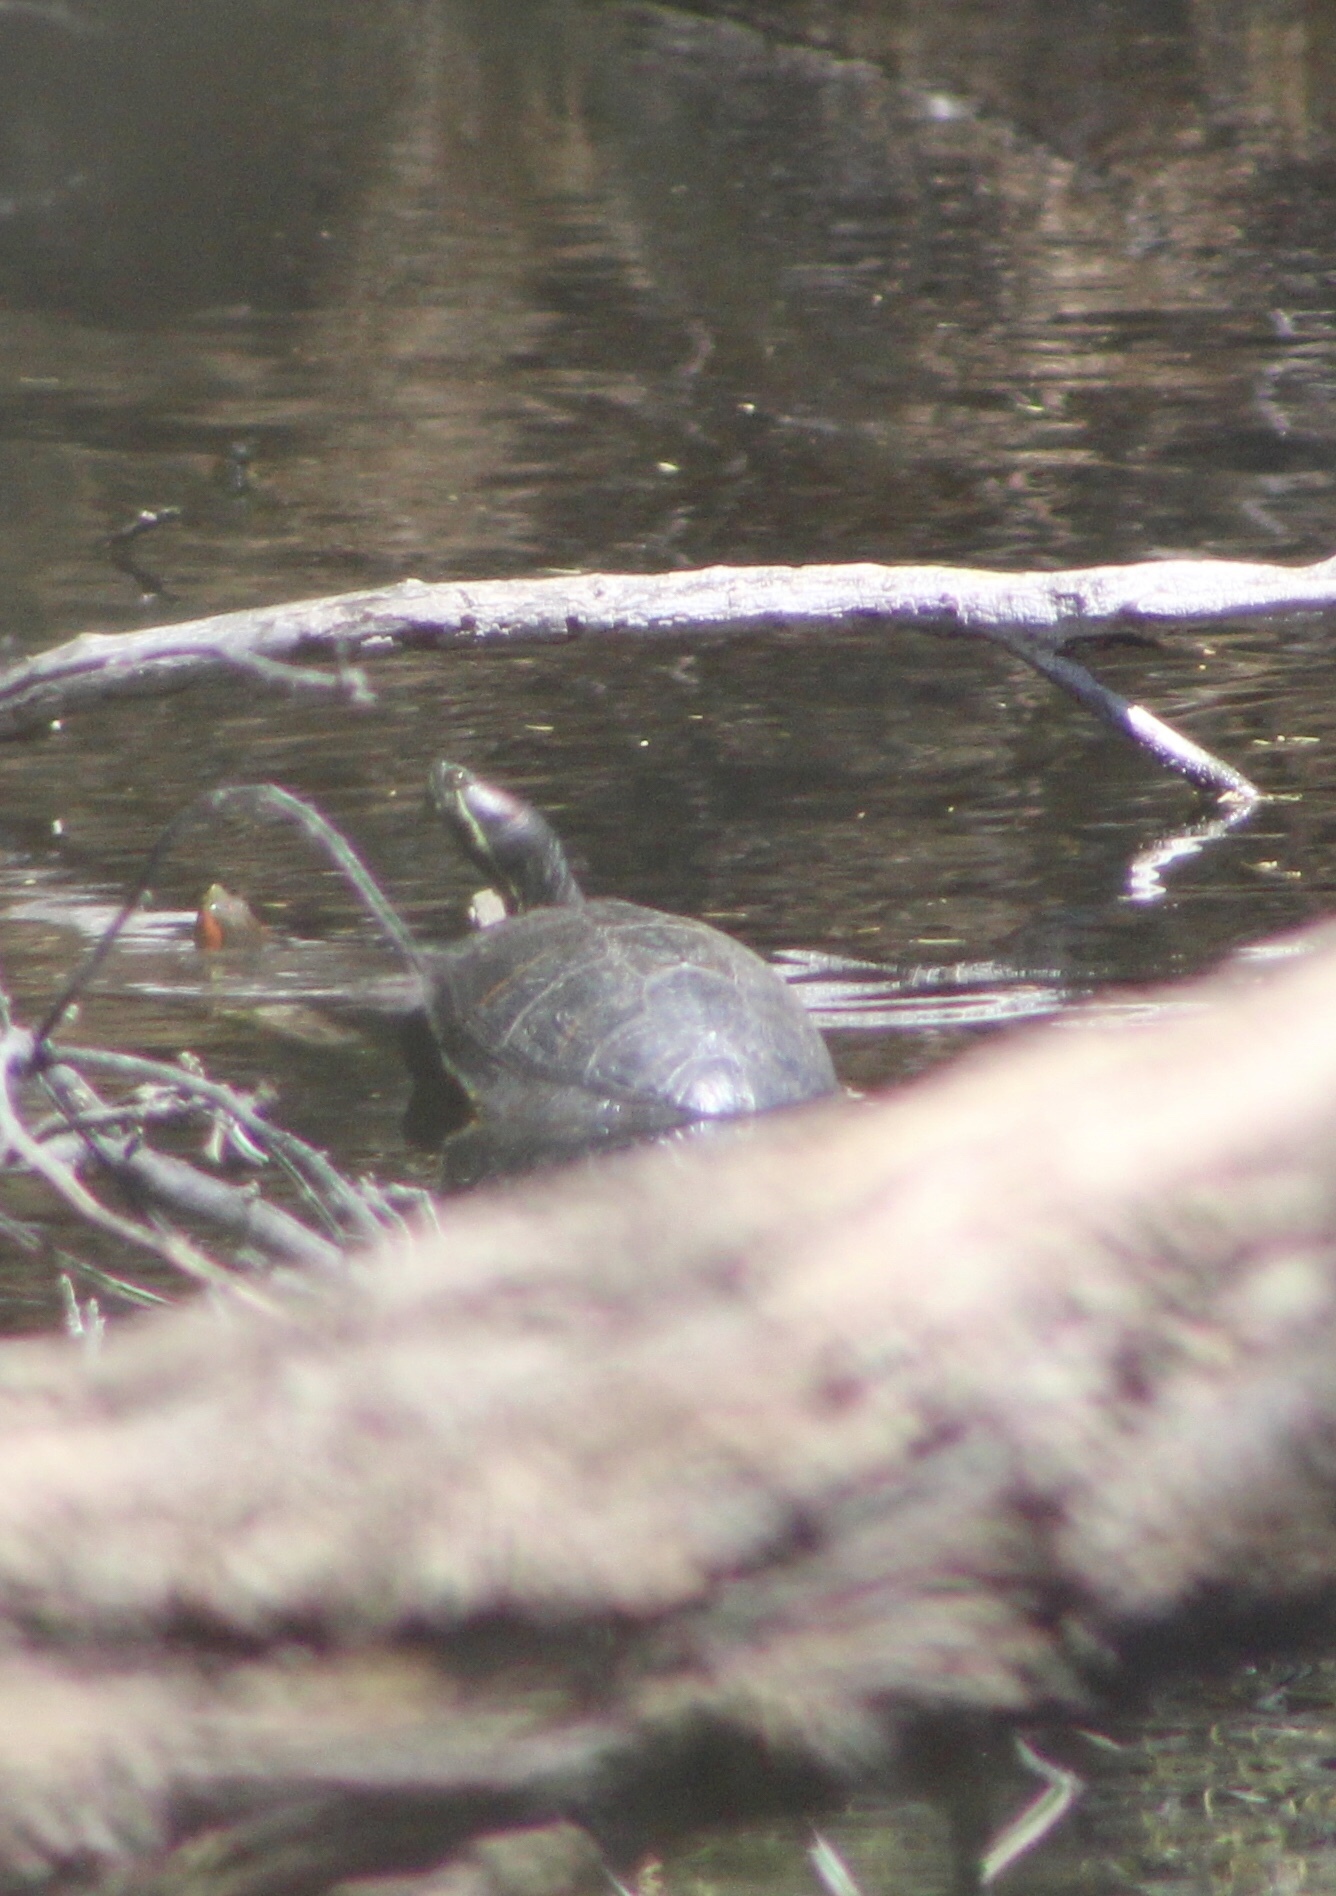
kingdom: Animalia
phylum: Chordata
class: Testudines
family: Emydidae
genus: Trachemys
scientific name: Trachemys scripta
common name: Slider
